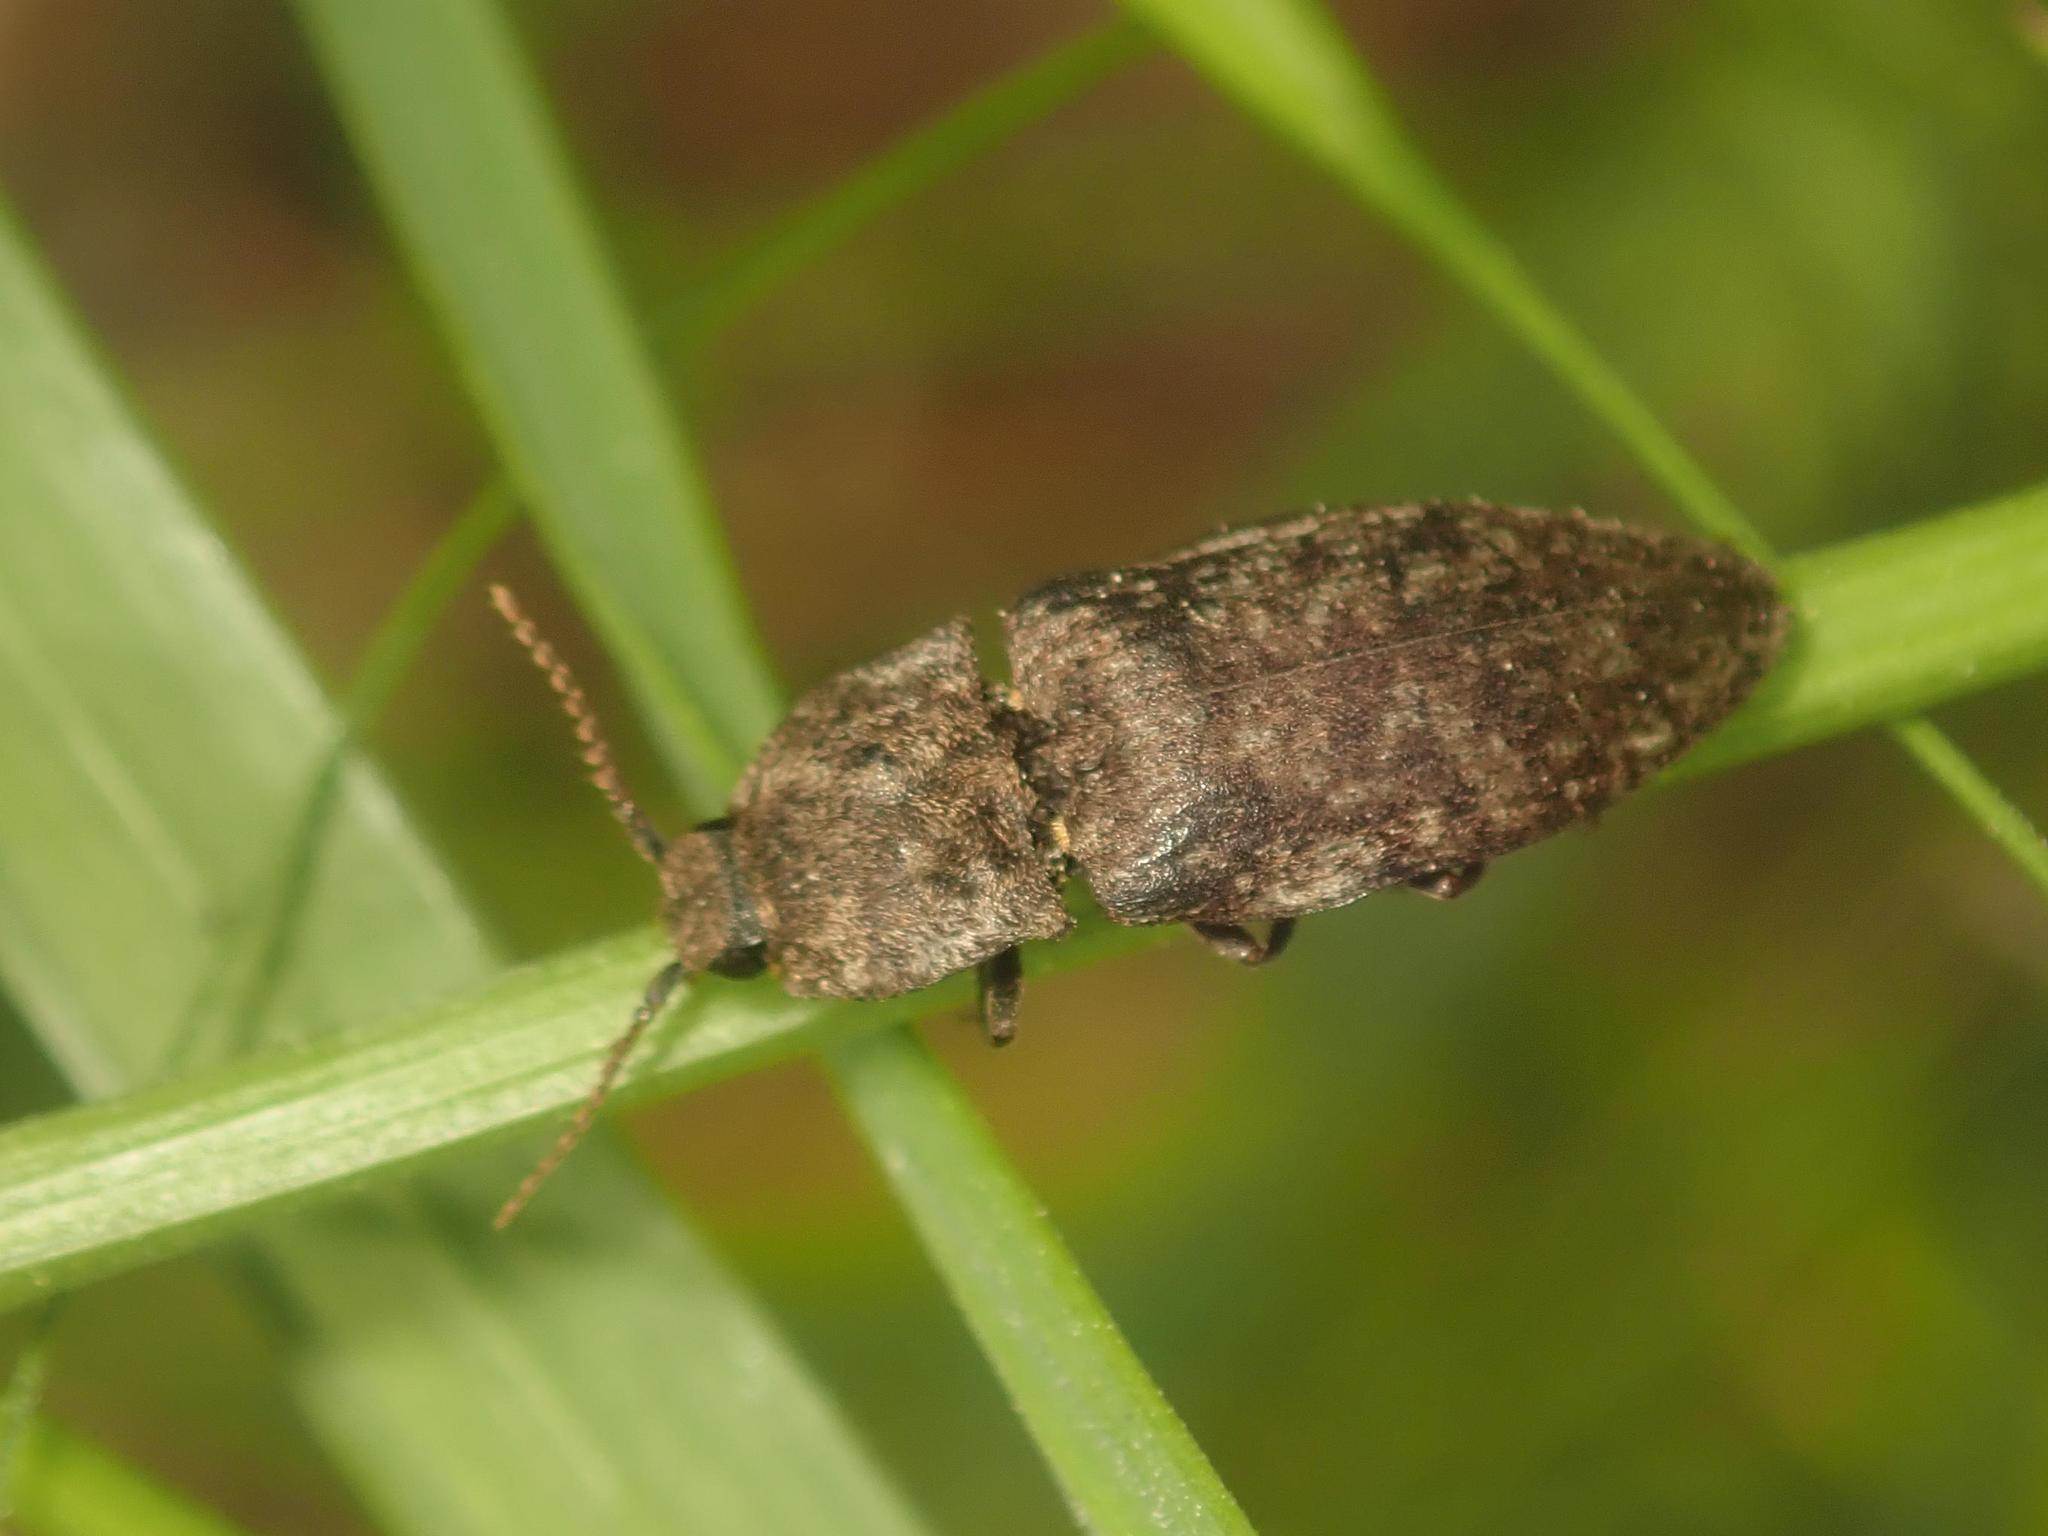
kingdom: Animalia
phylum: Arthropoda
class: Insecta
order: Coleoptera
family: Elateridae
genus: Agrypnus
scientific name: Agrypnus murinus
